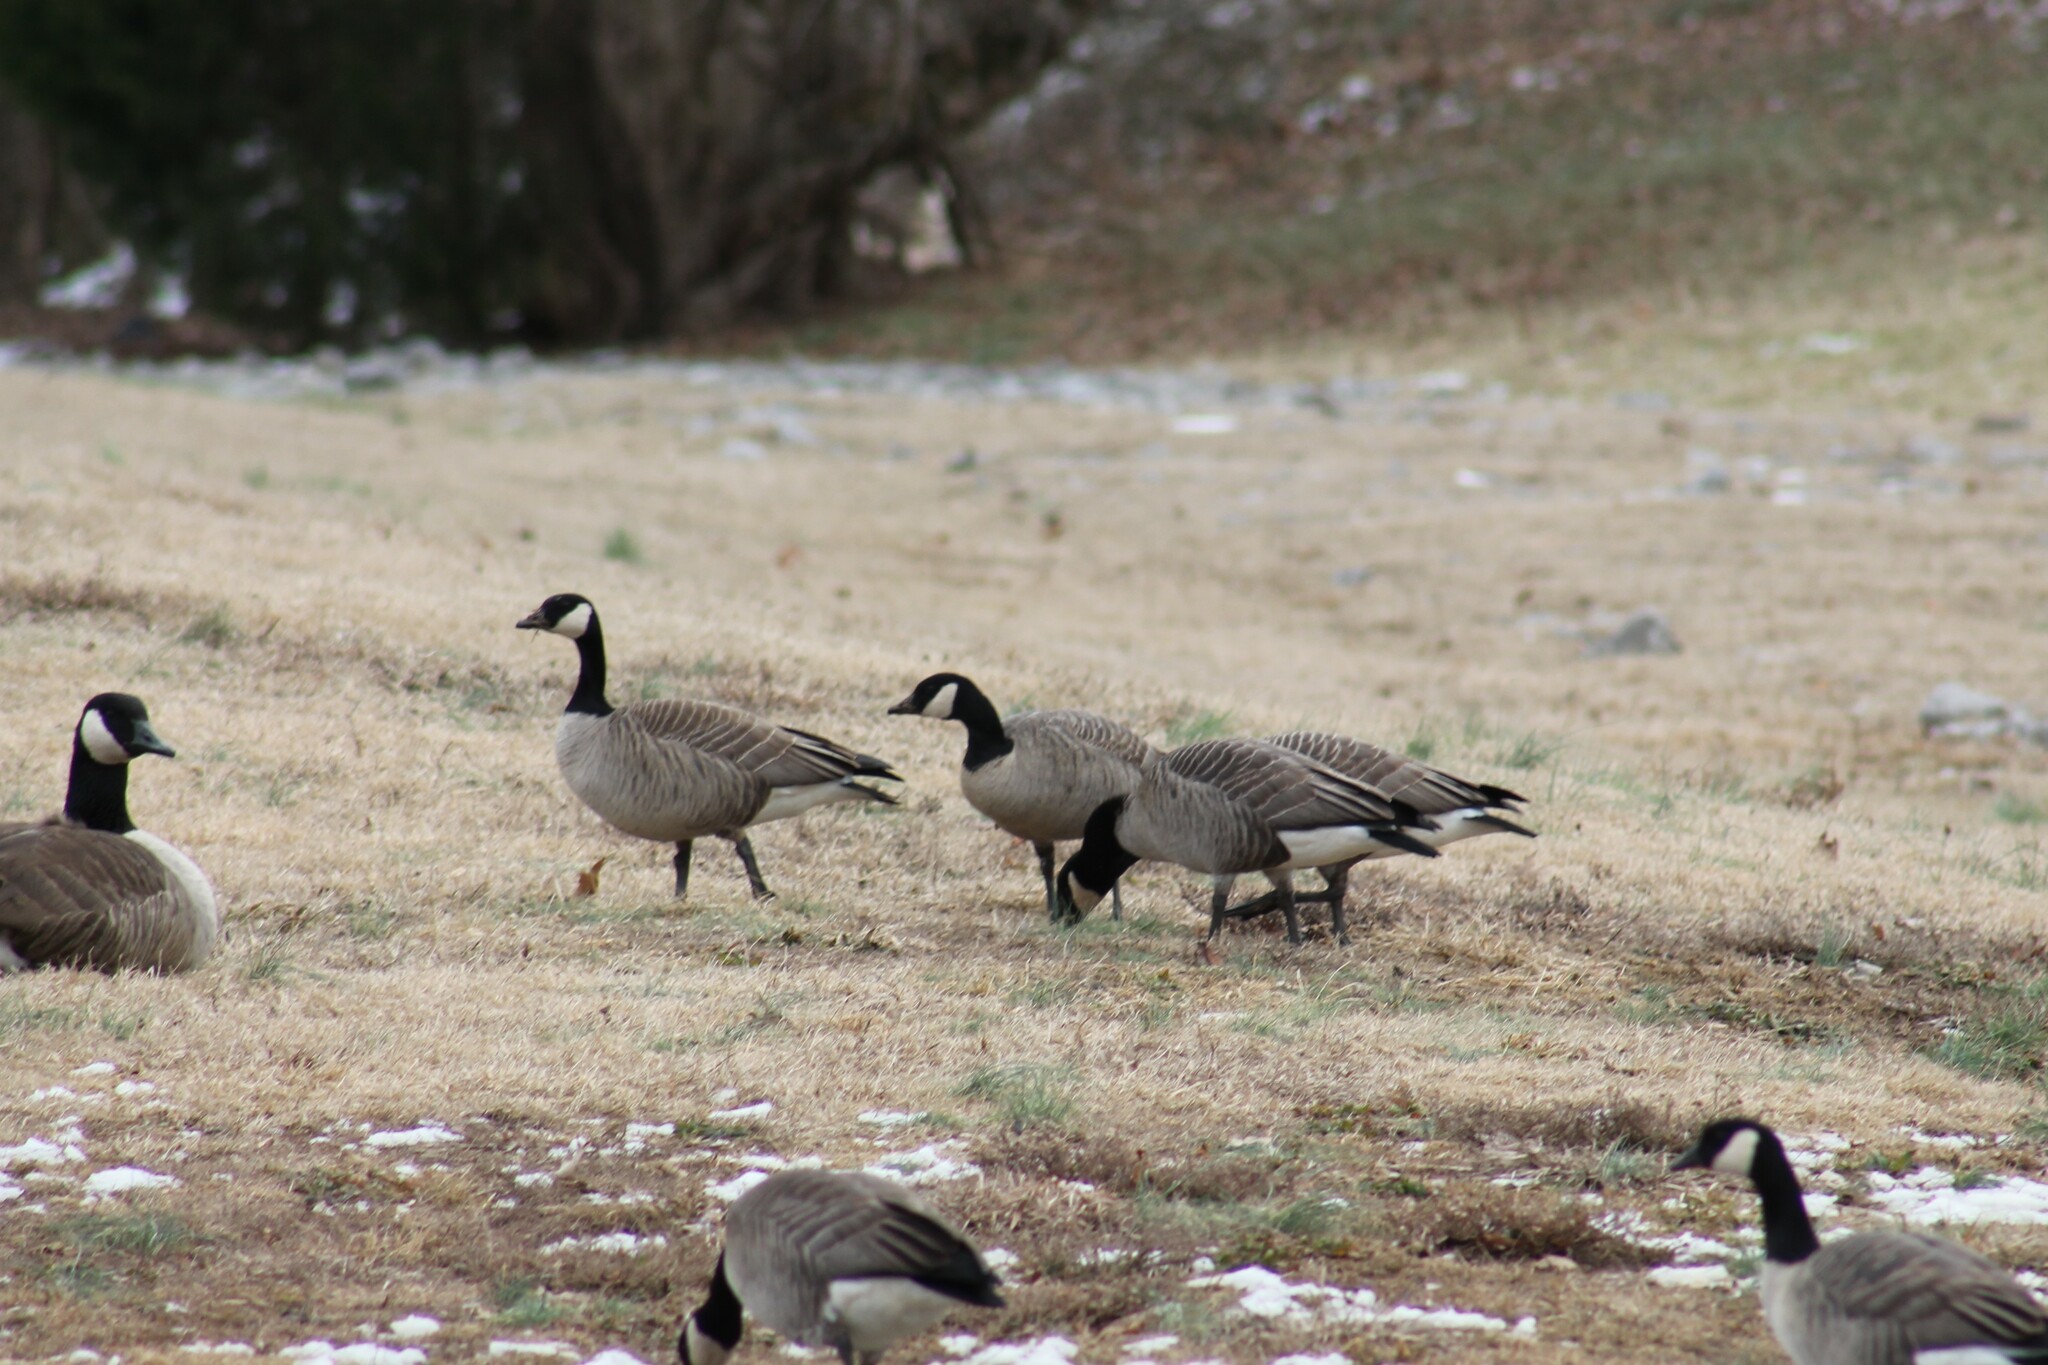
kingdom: Animalia
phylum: Chordata
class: Aves
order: Anseriformes
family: Anatidae
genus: Branta
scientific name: Branta hutchinsii
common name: Cackling goose
